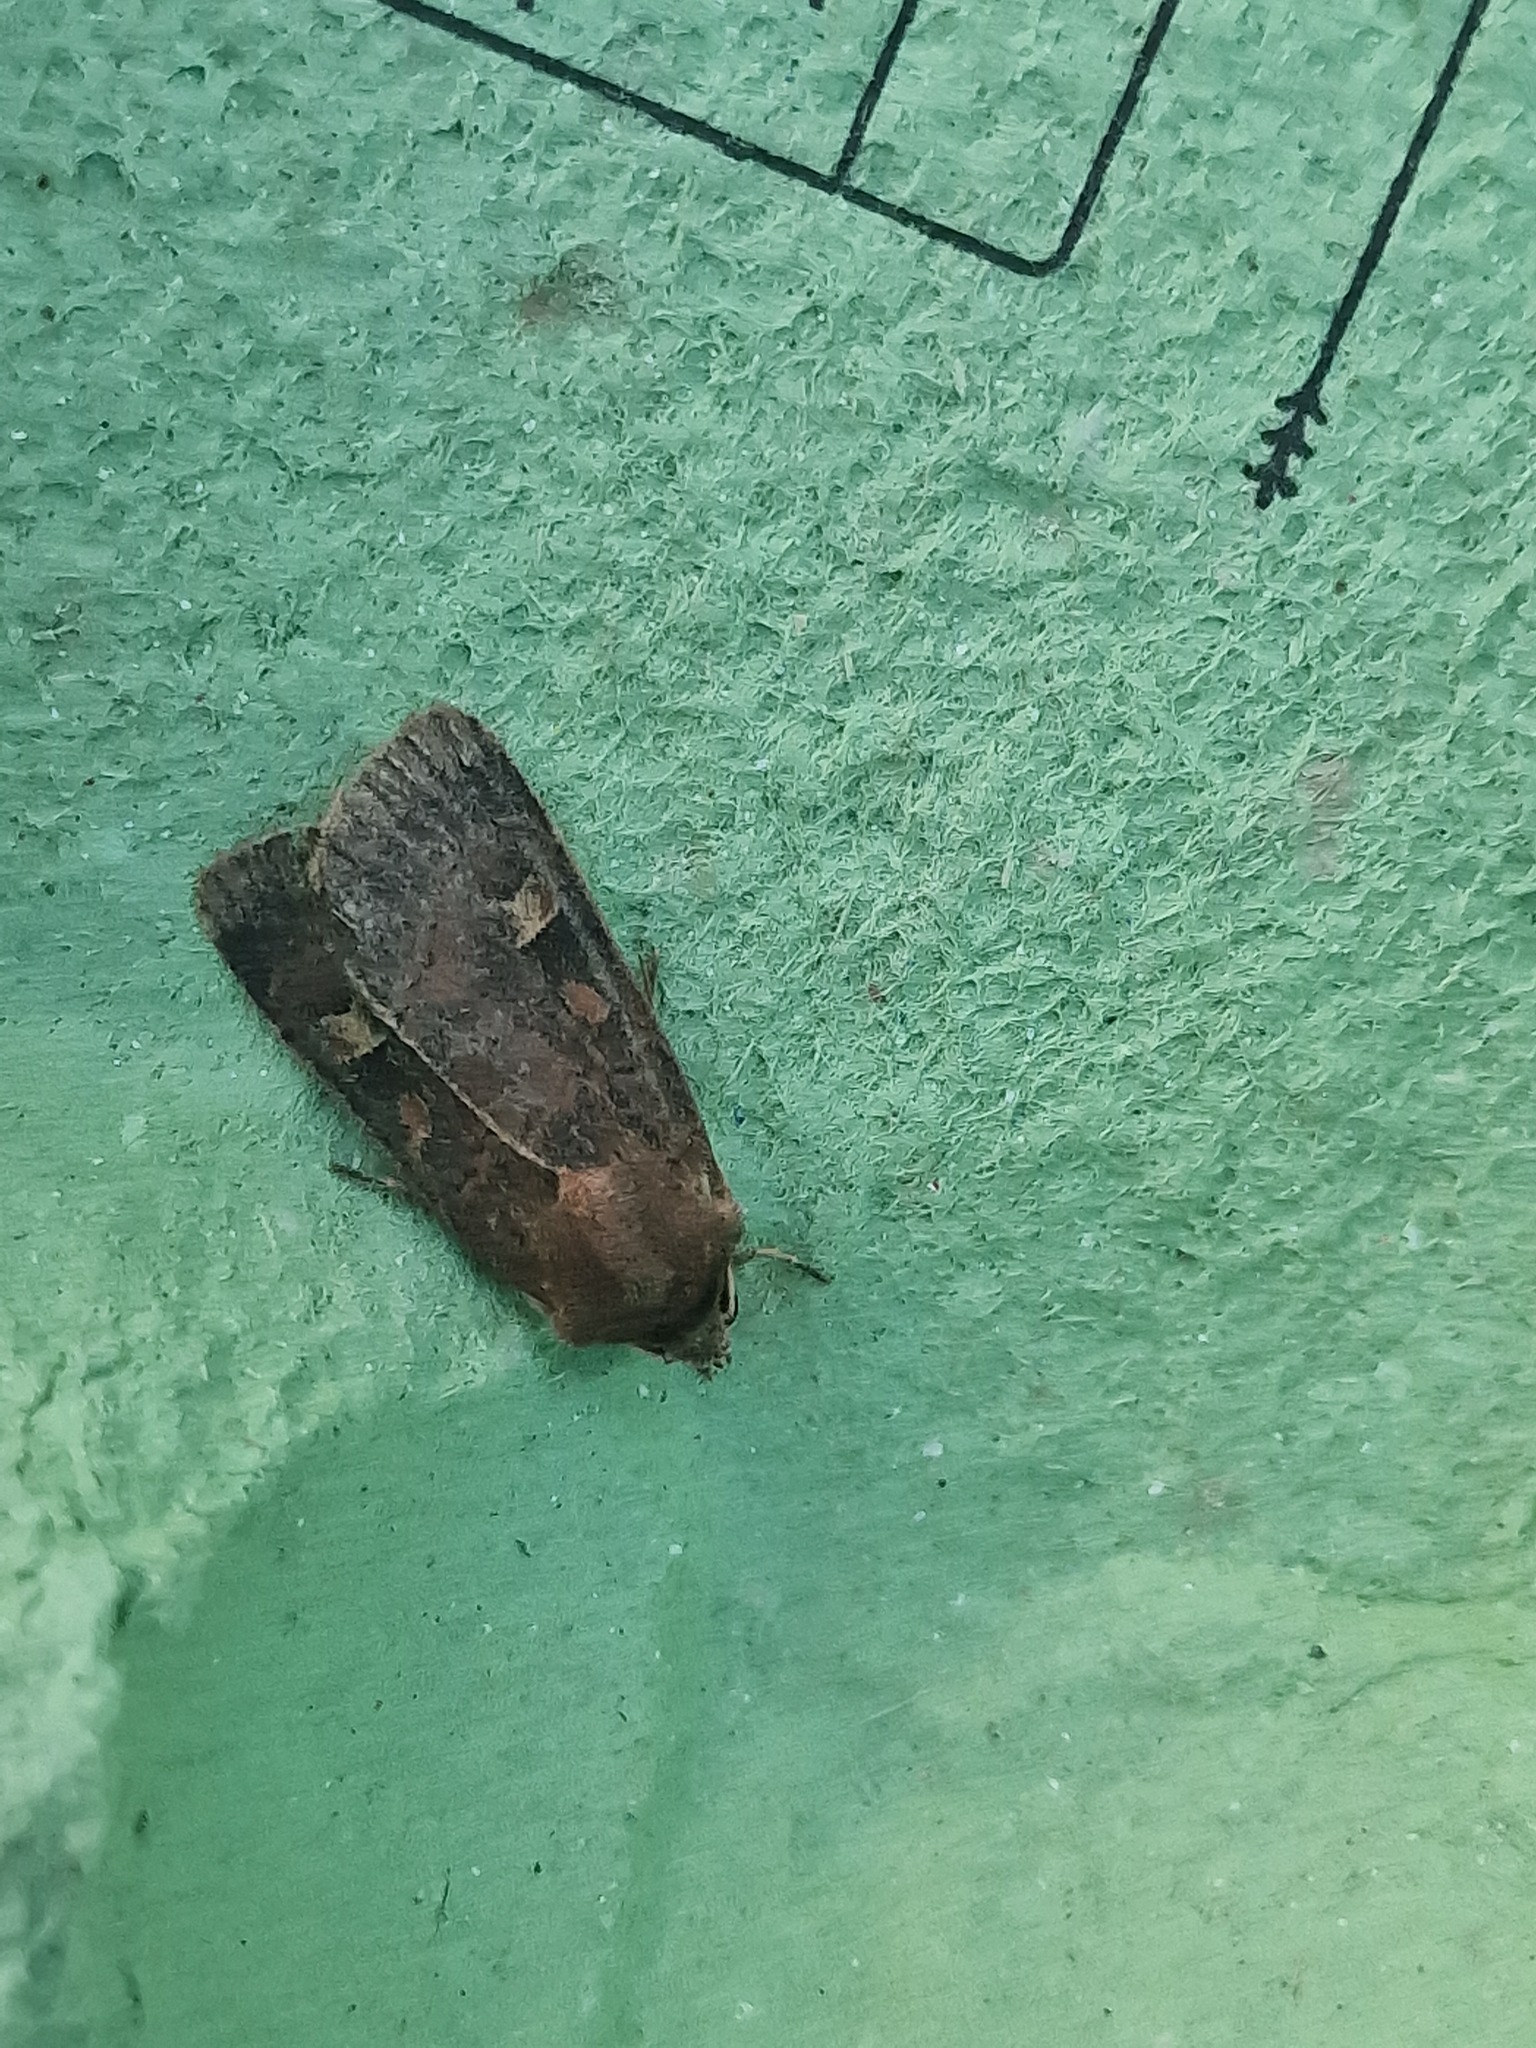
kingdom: Animalia
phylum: Arthropoda
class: Insecta
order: Lepidoptera
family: Noctuidae
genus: Xestia
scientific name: Xestia xanthographa
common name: Square-spot rustic
